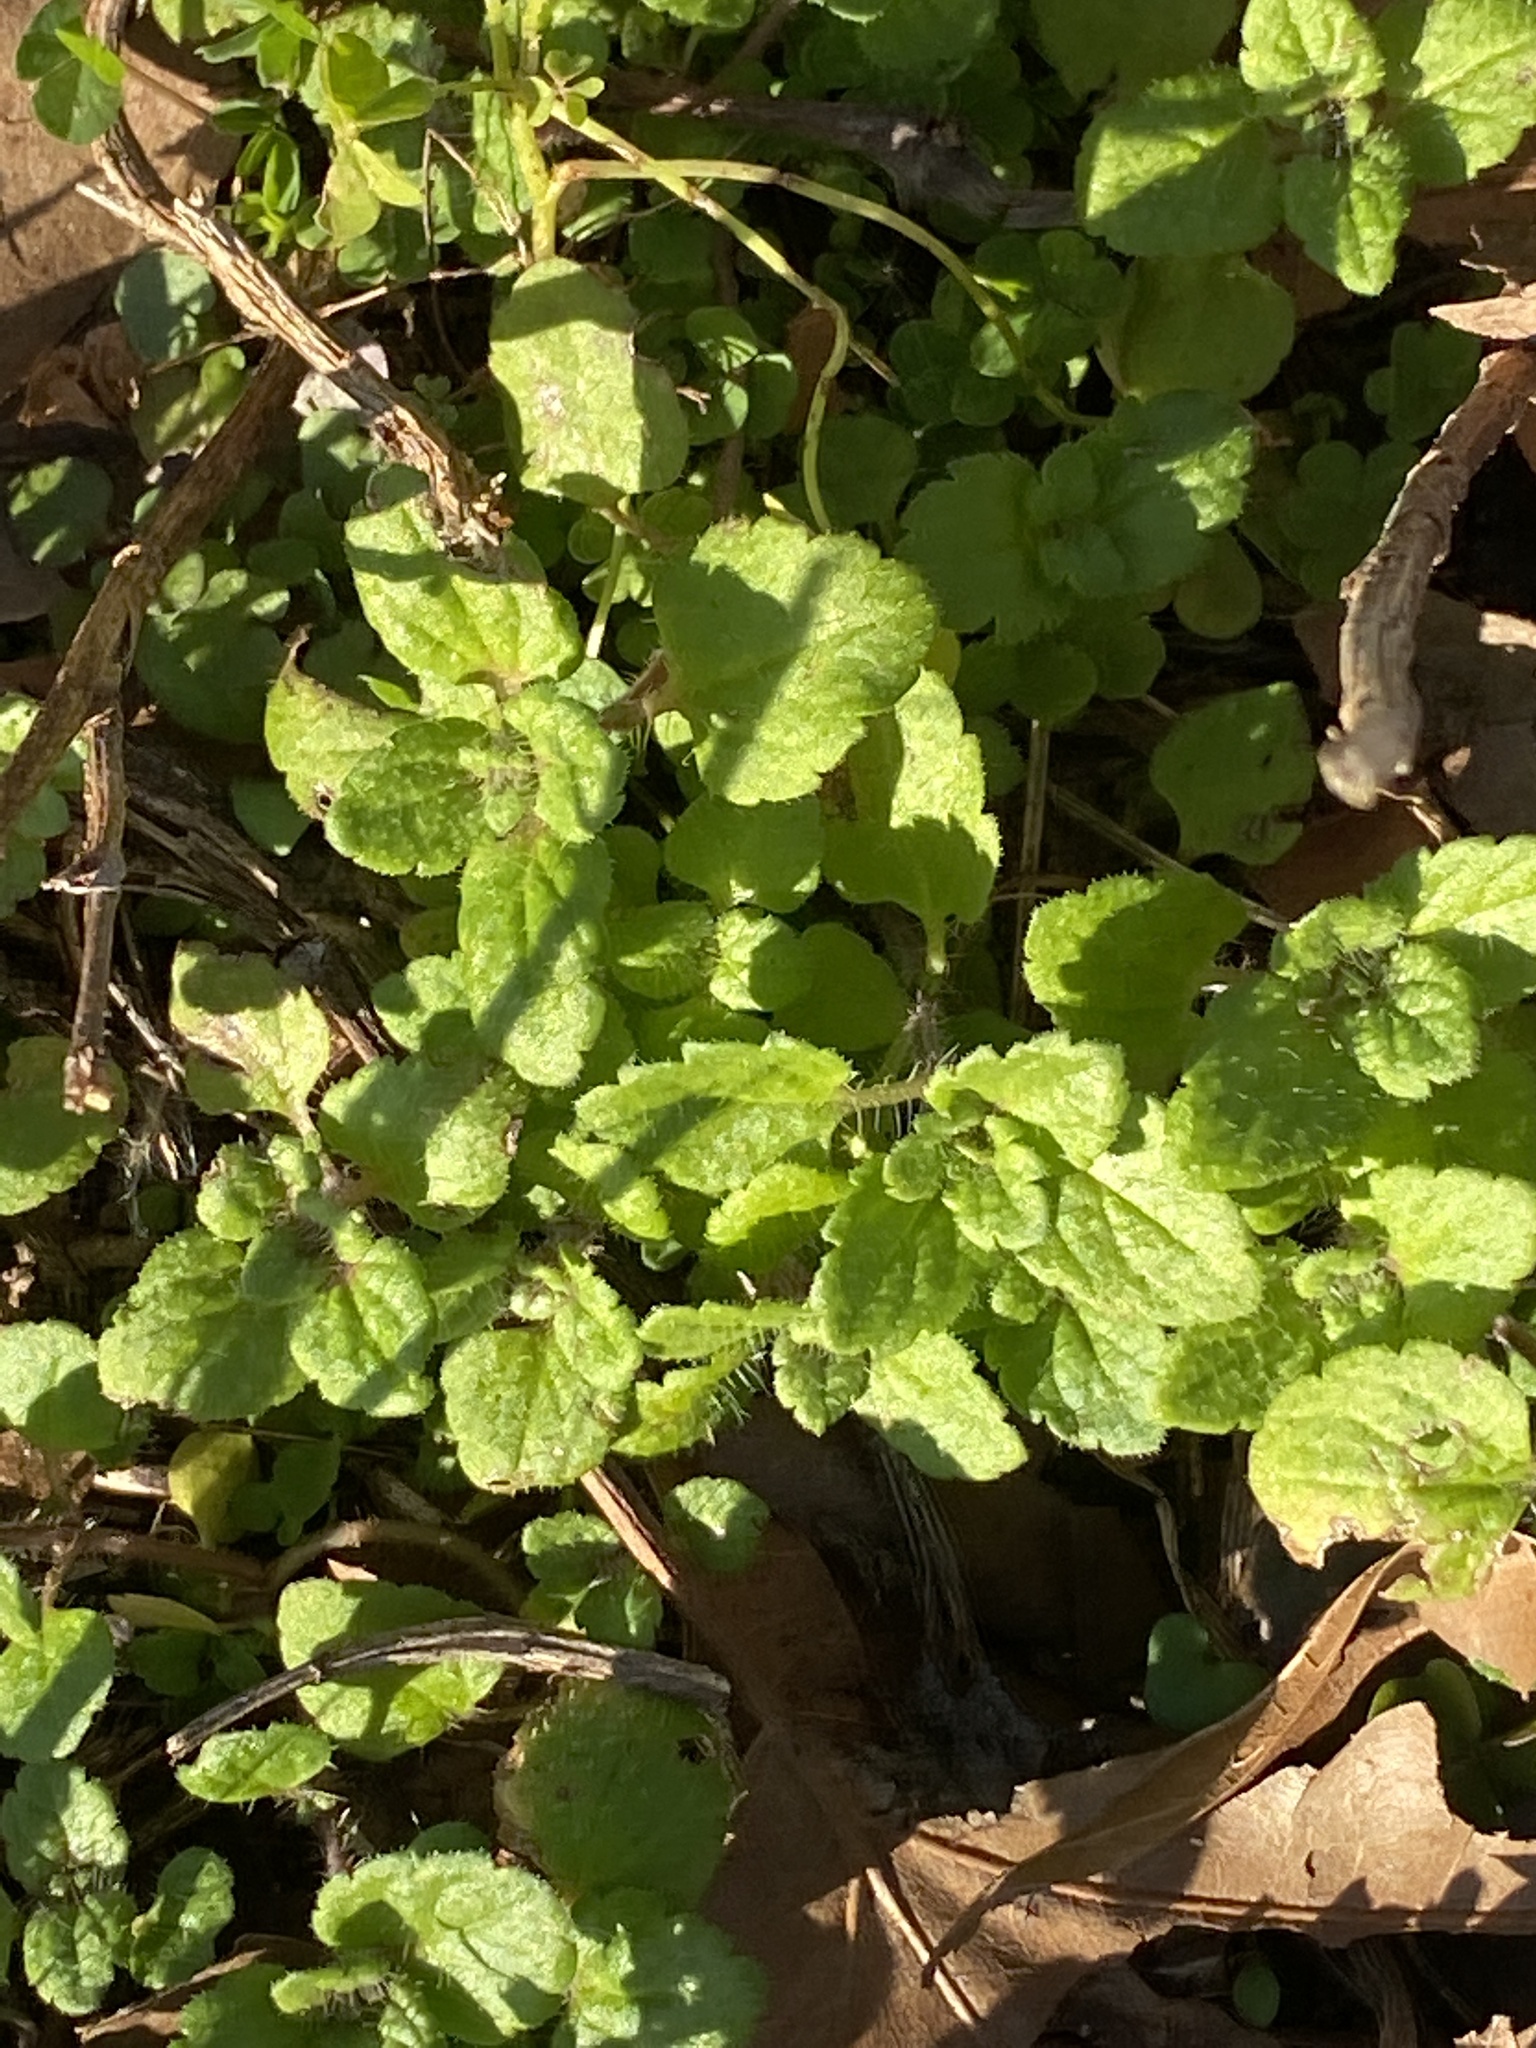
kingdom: Plantae
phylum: Tracheophyta
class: Magnoliopsida
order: Lamiales
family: Plantaginaceae
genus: Veronica
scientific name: Veronica persica
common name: Common field-speedwell
